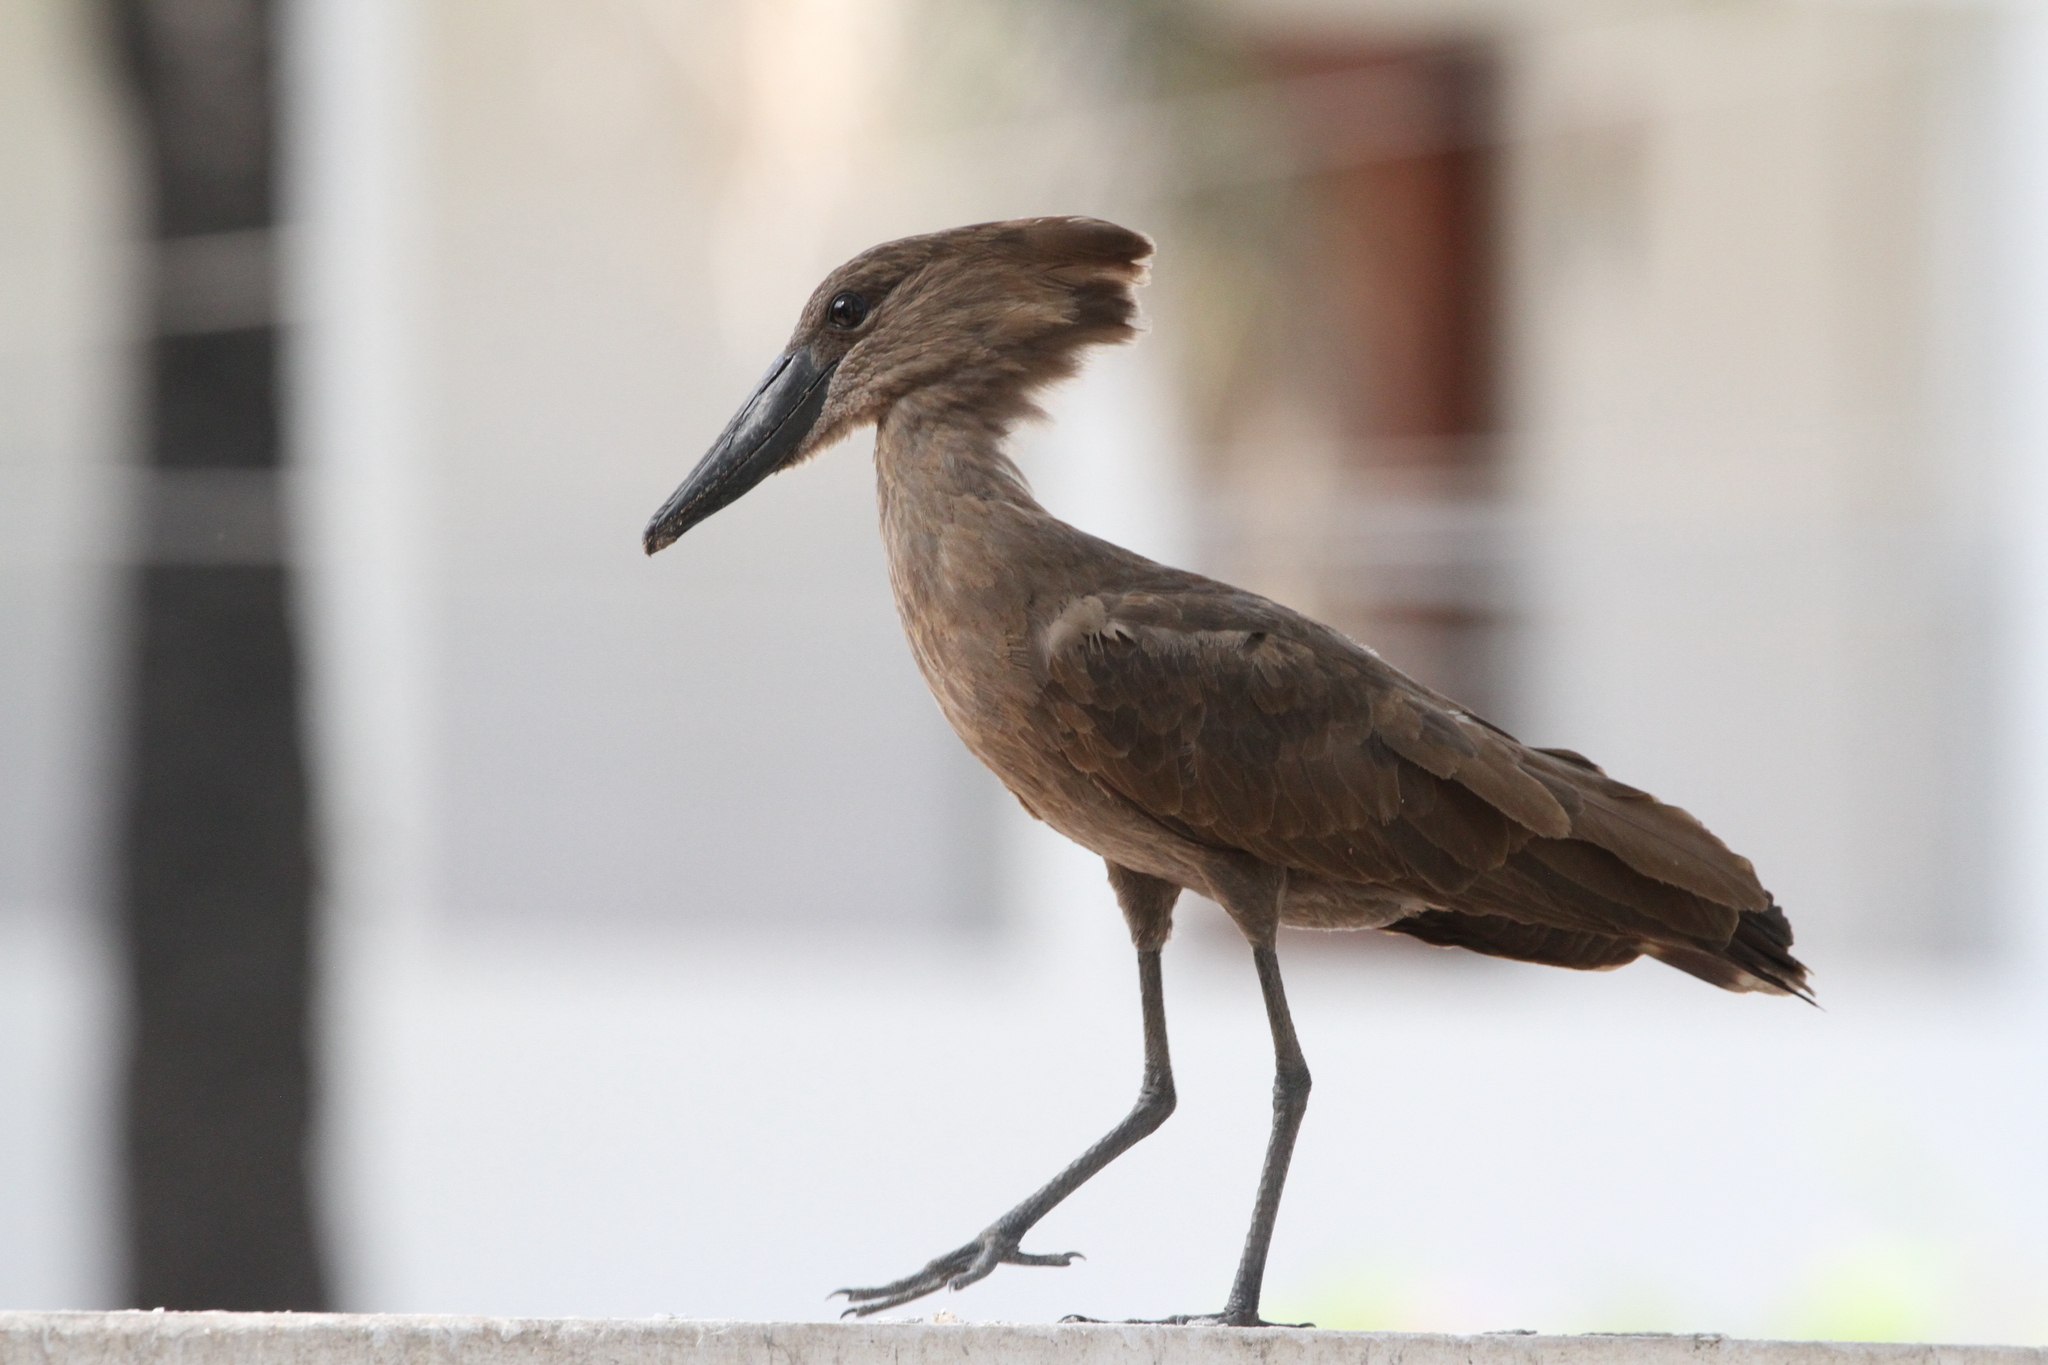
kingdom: Animalia
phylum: Chordata
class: Aves
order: Pelecaniformes
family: Scopidae
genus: Scopus
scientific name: Scopus umbretta
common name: Hamerkop
